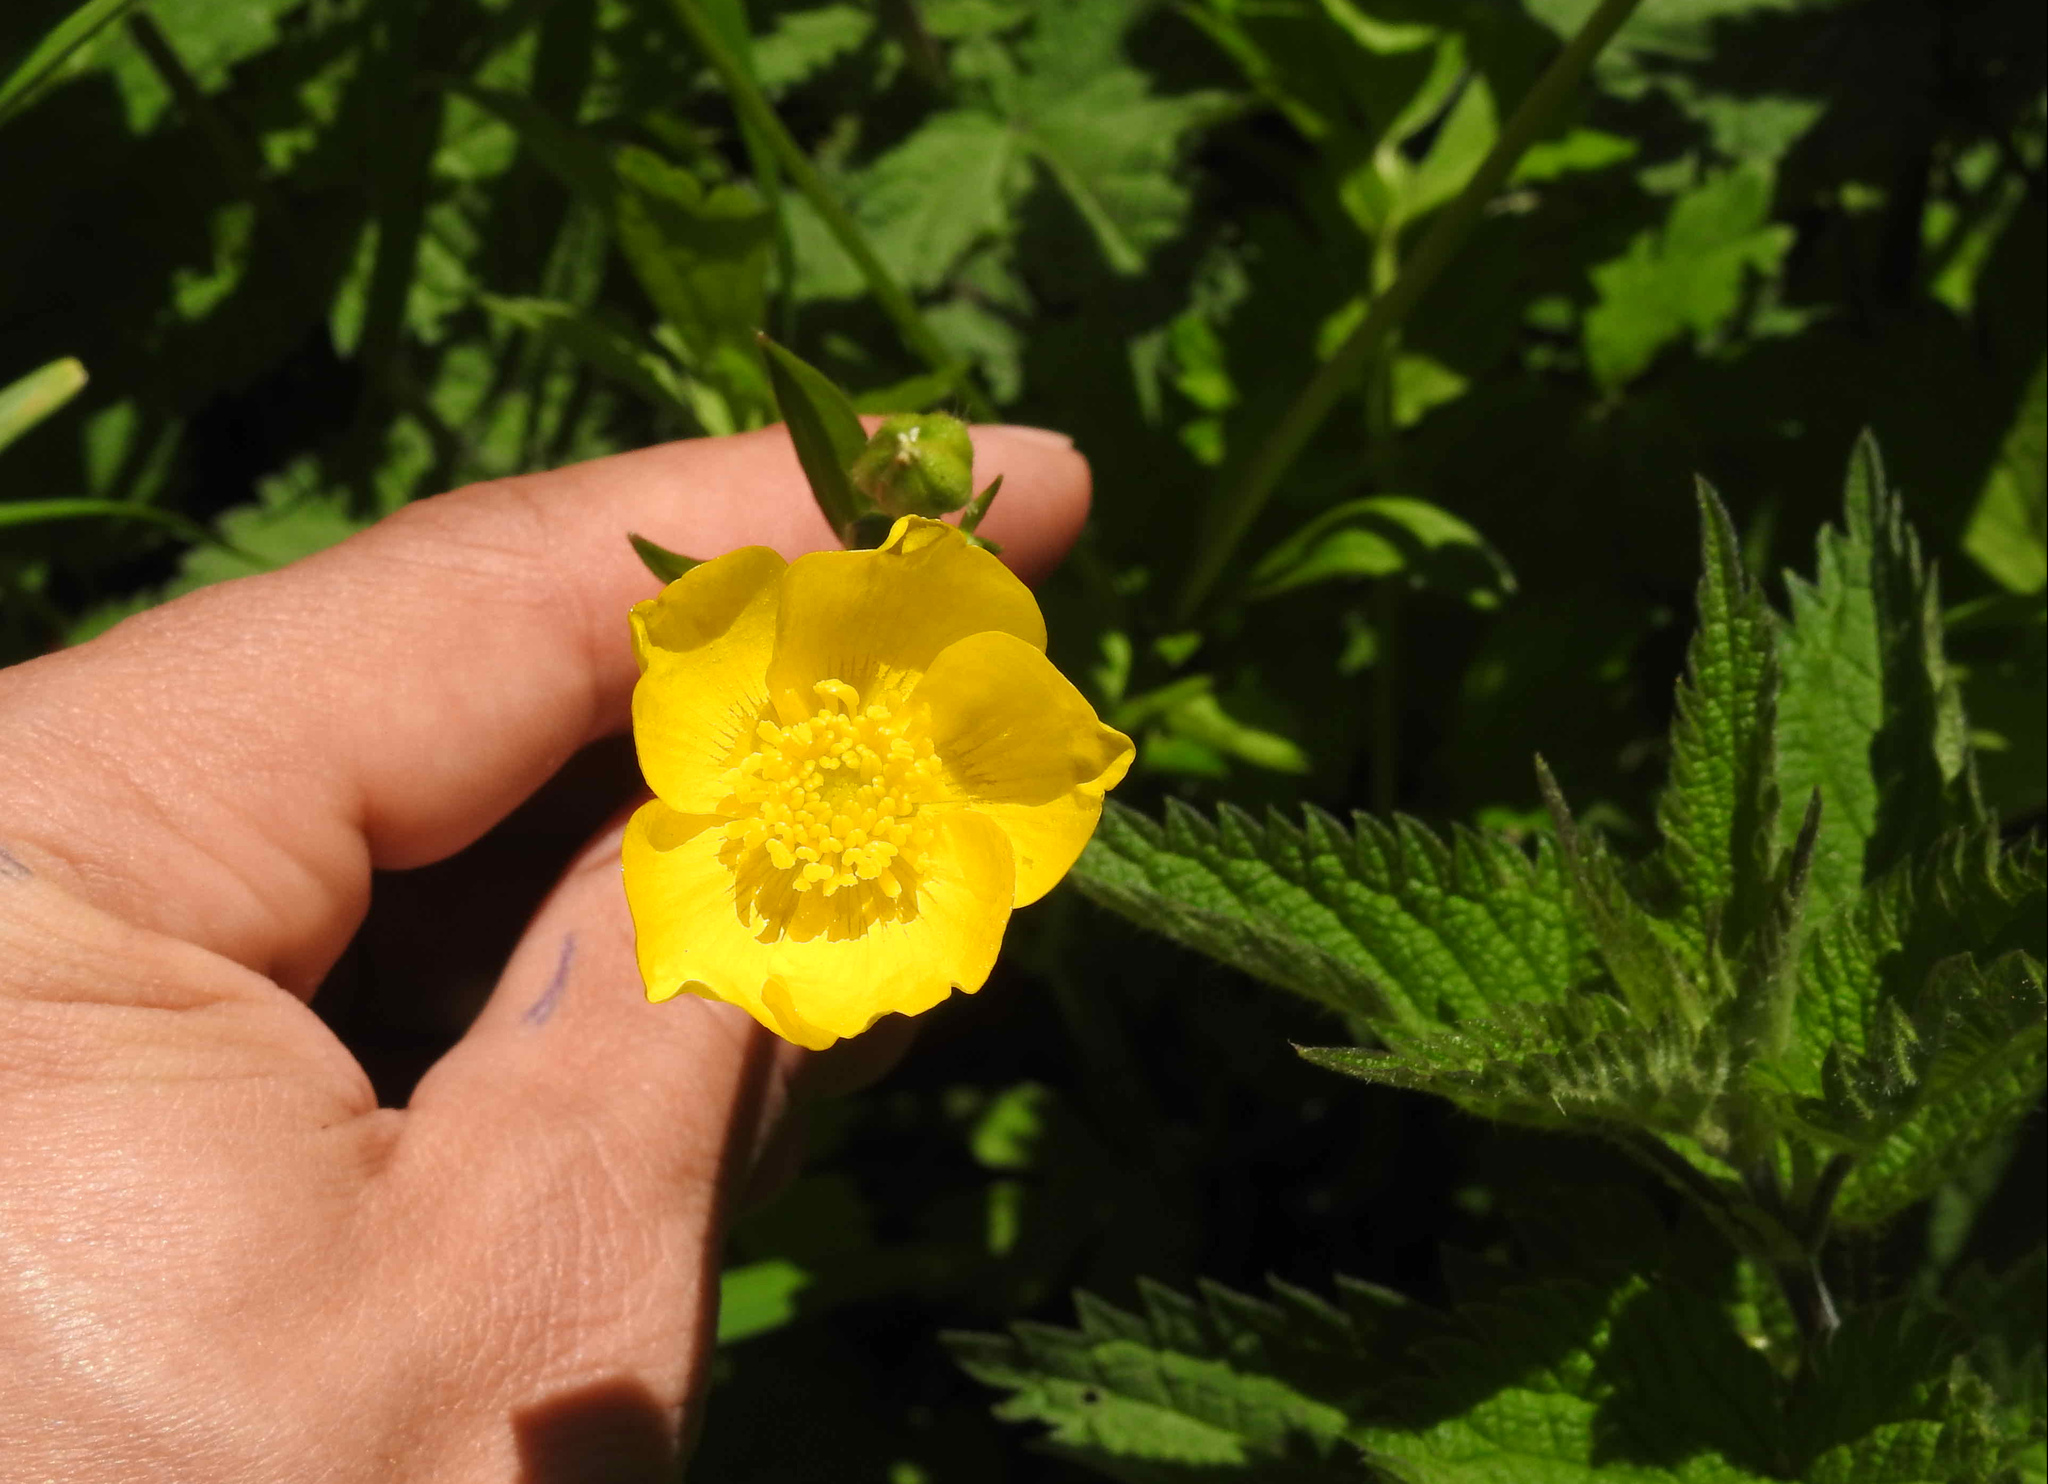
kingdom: Plantae
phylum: Tracheophyta
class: Magnoliopsida
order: Ranunculales
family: Ranunculaceae
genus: Ranunculus
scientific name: Ranunculus repens
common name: Creeping buttercup
